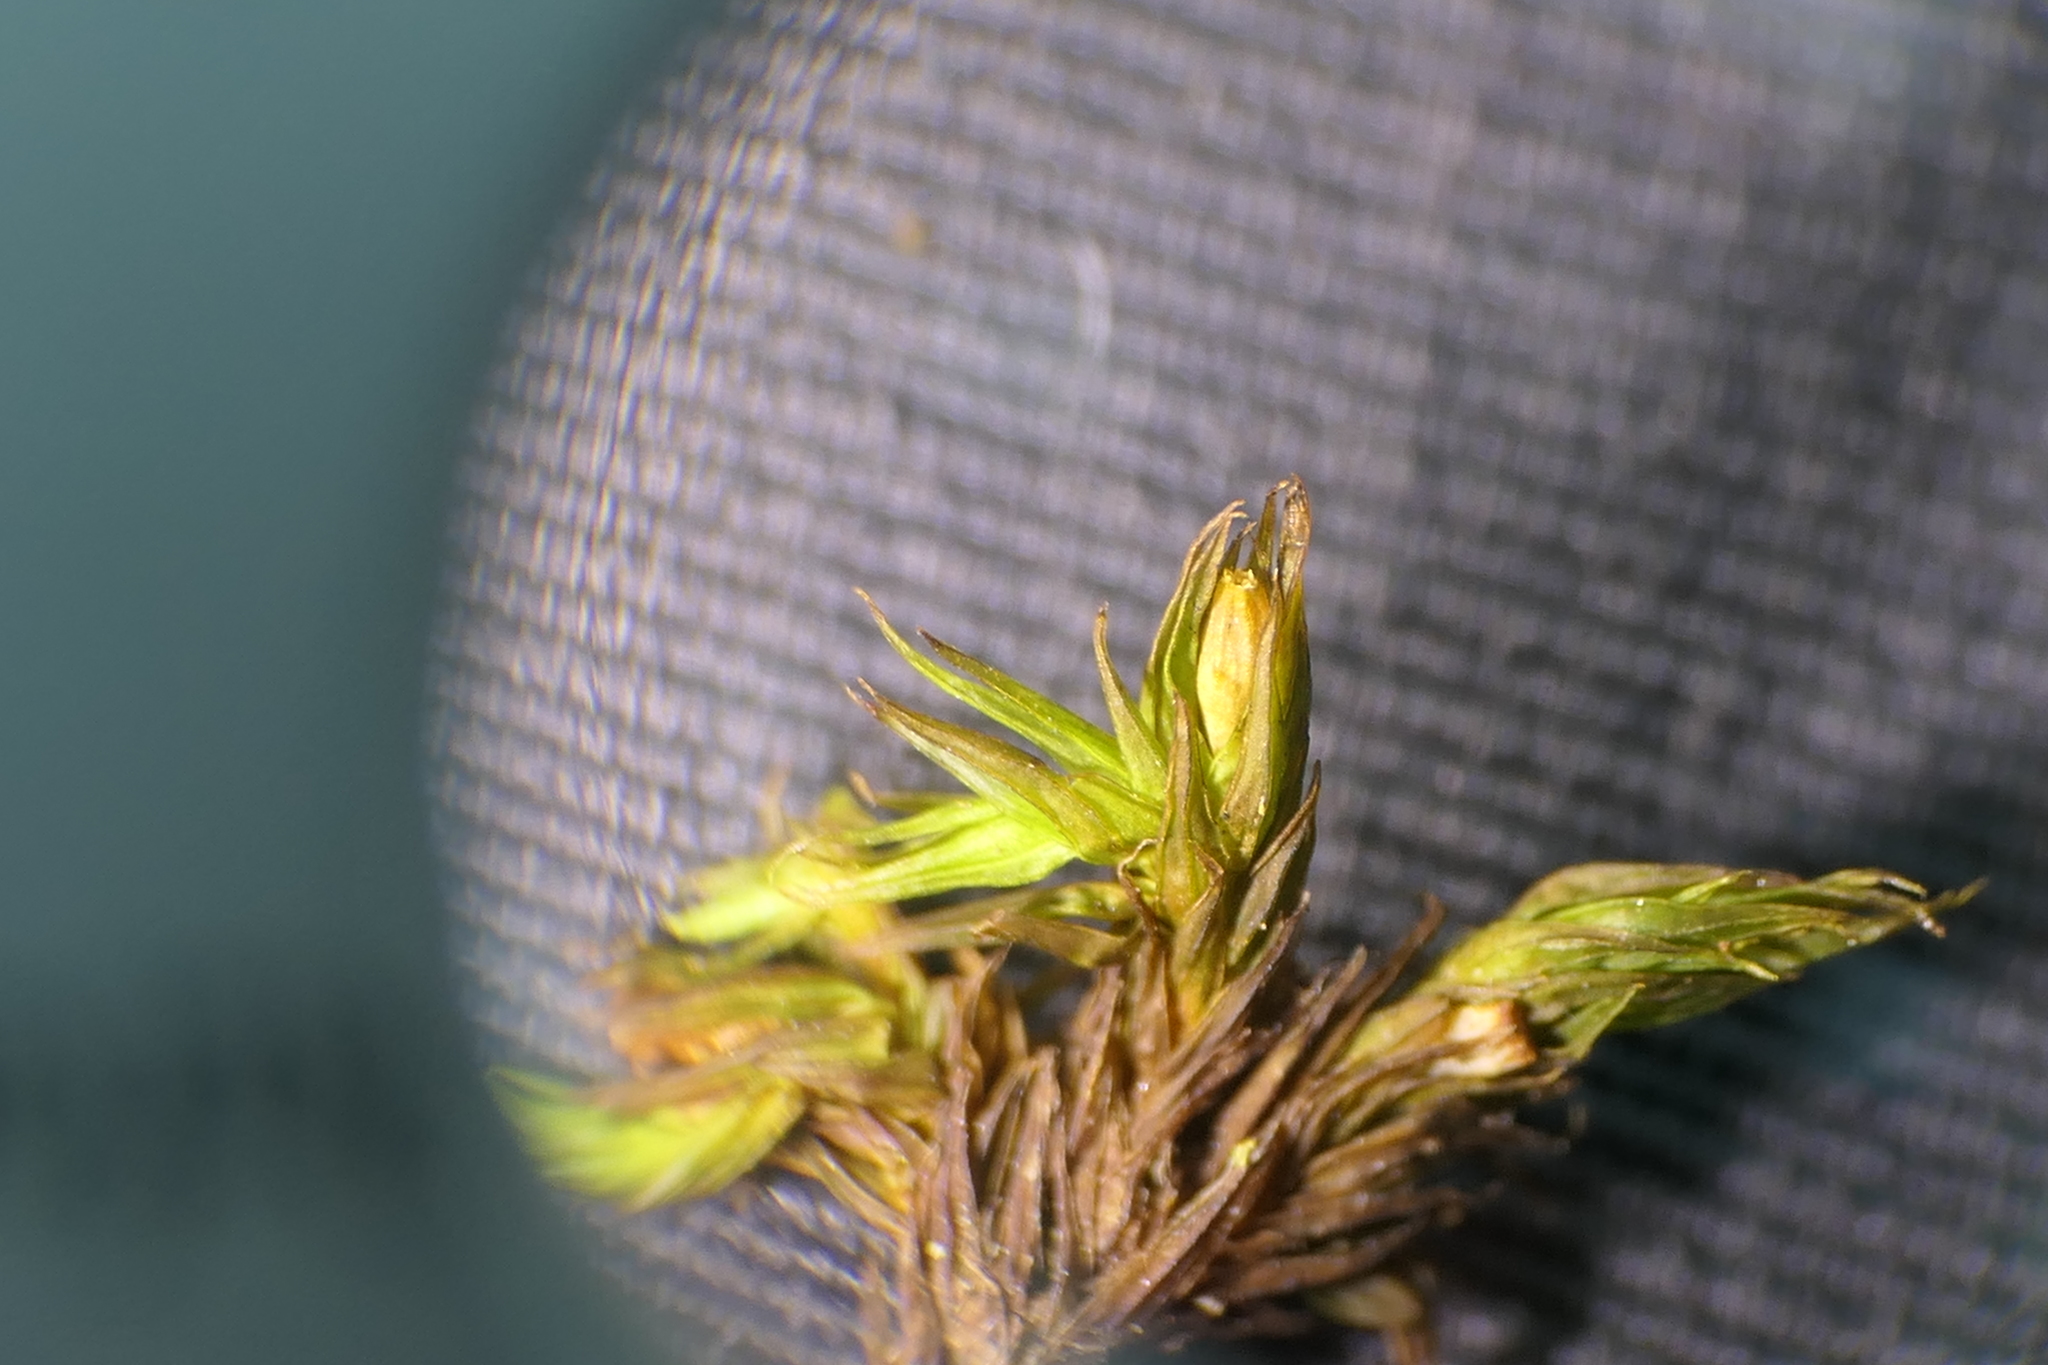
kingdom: Plantae
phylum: Bryophyta
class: Bryopsida
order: Orthotrichales
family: Orthotrichaceae
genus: Lewinskya
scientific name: Lewinskya acuminata
